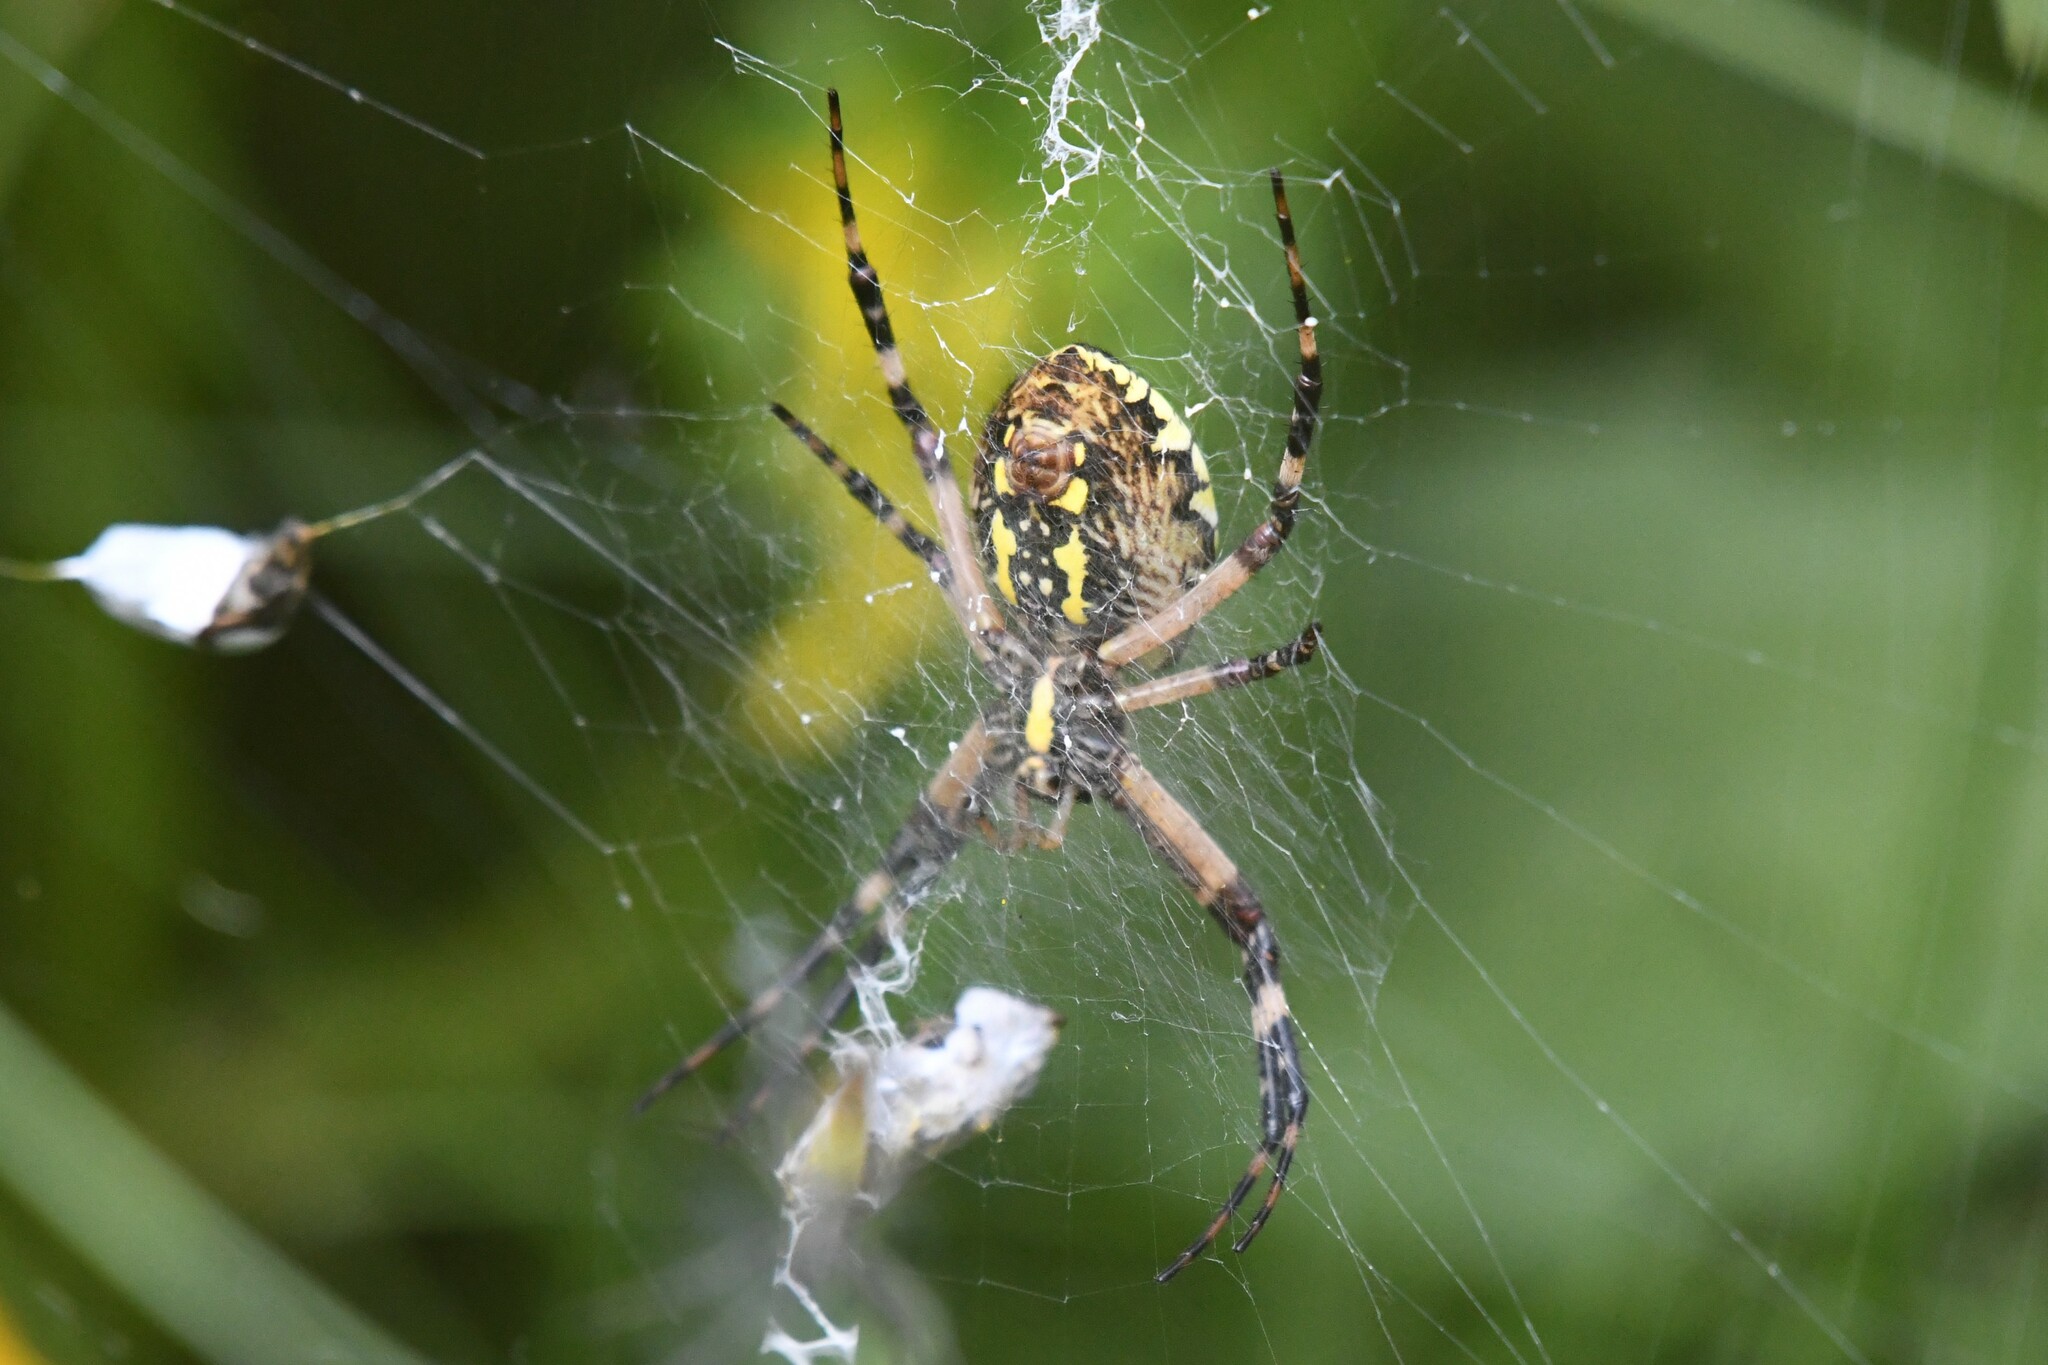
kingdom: Animalia
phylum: Arthropoda
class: Arachnida
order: Araneae
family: Araneidae
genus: Argiope
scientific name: Argiope aurantia
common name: Orb weavers
